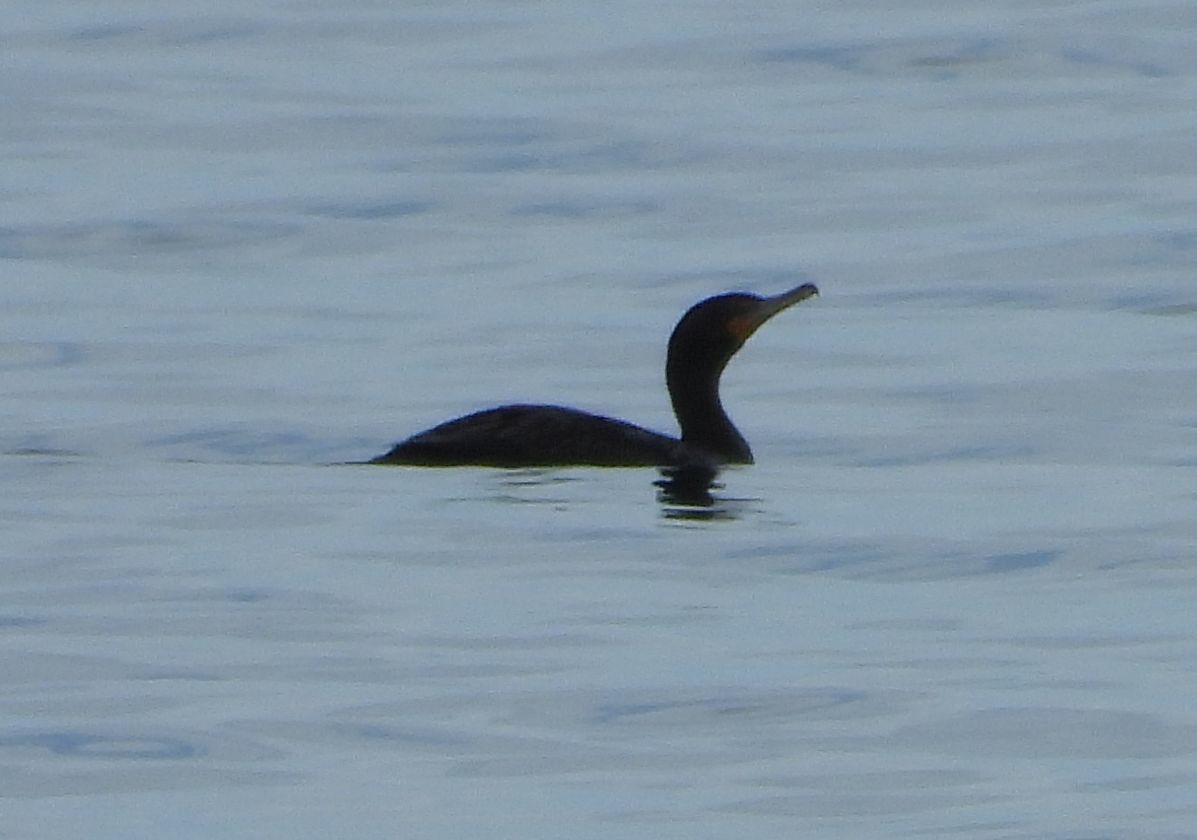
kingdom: Animalia
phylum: Chordata
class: Aves
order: Suliformes
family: Phalacrocoracidae
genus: Phalacrocorax
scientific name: Phalacrocorax auritus
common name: Double-crested cormorant
